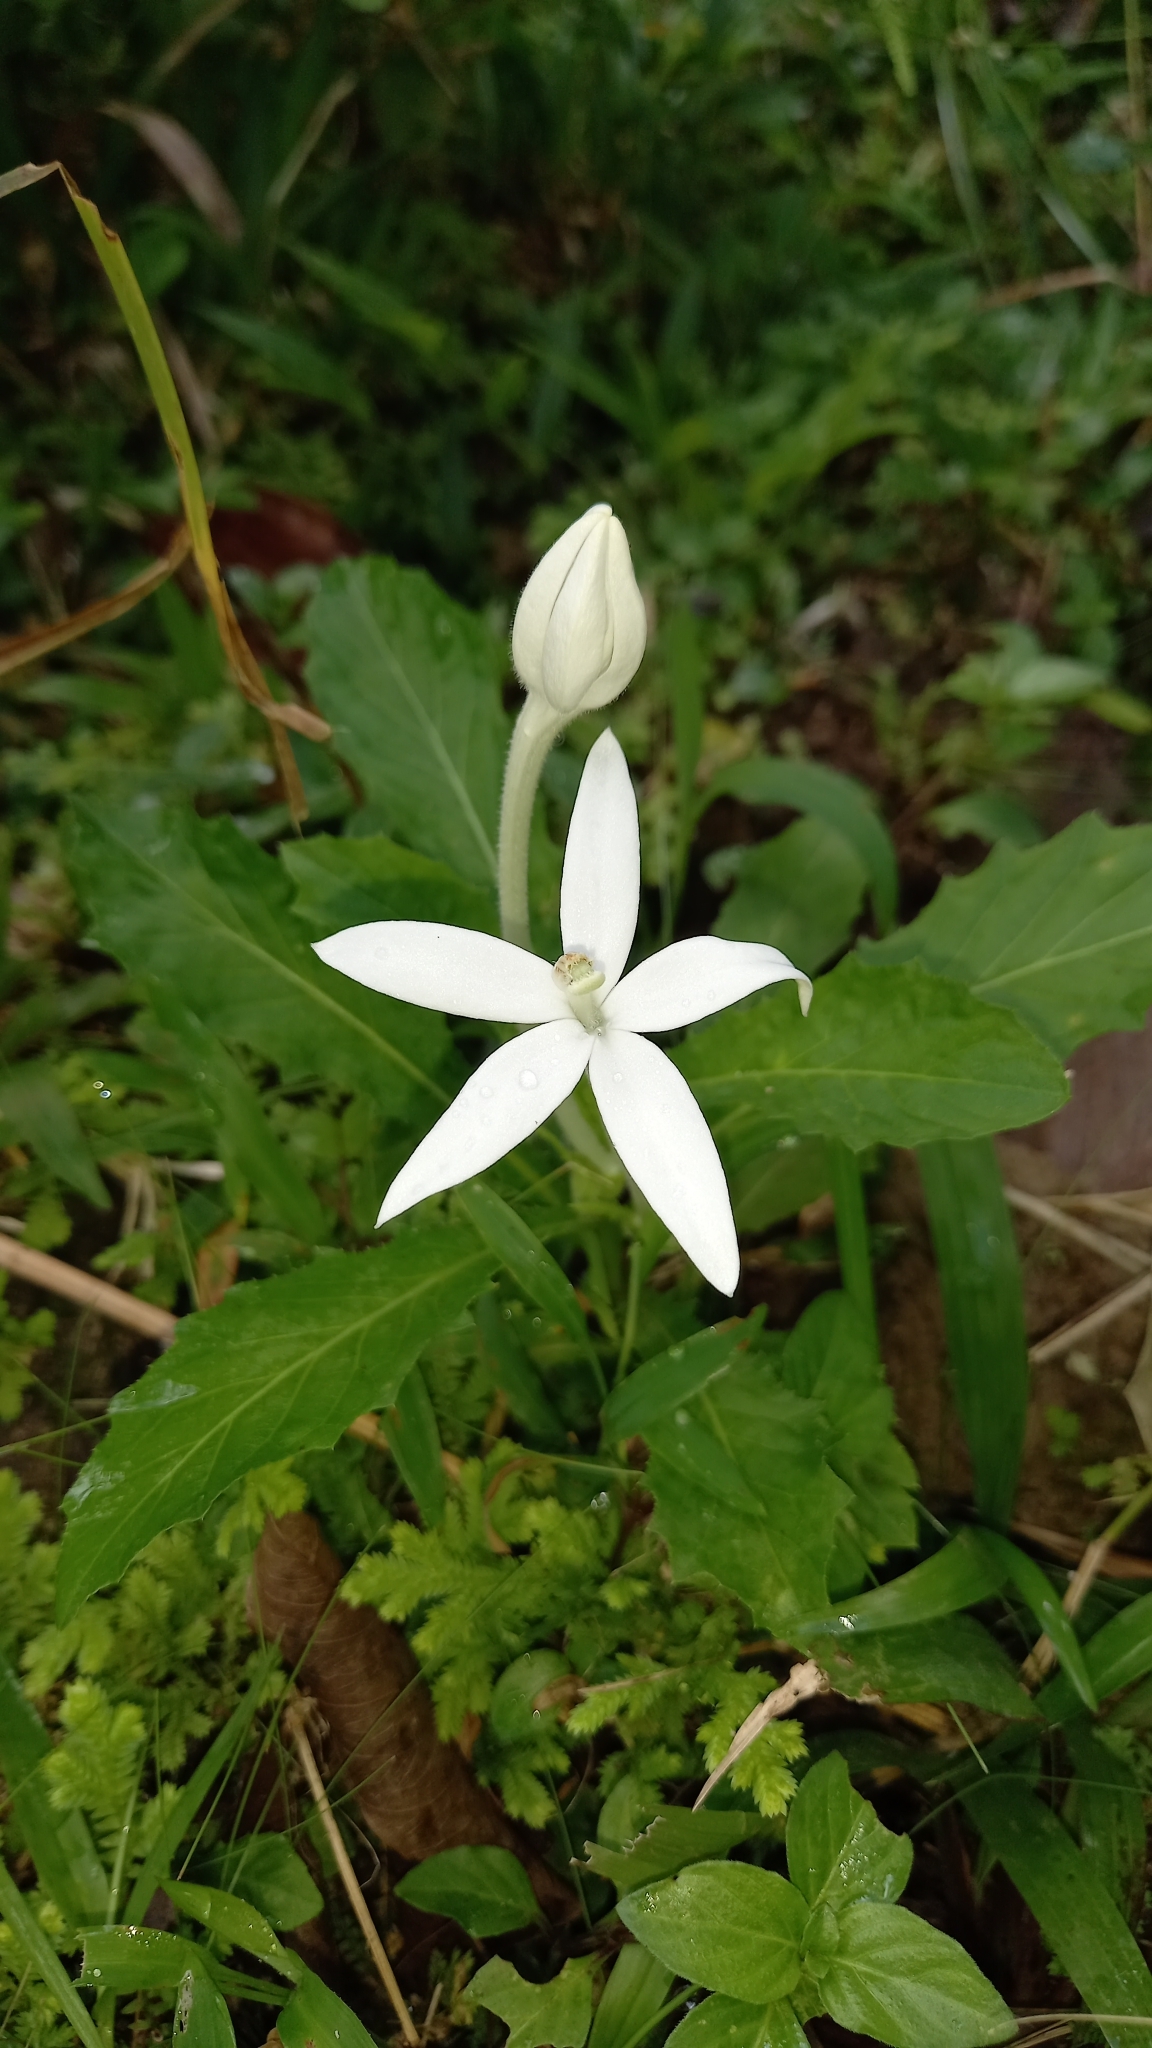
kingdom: Plantae
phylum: Tracheophyta
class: Magnoliopsida
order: Asterales
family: Campanulaceae
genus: Hippobroma
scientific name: Hippobroma longiflora
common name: Madamfate
